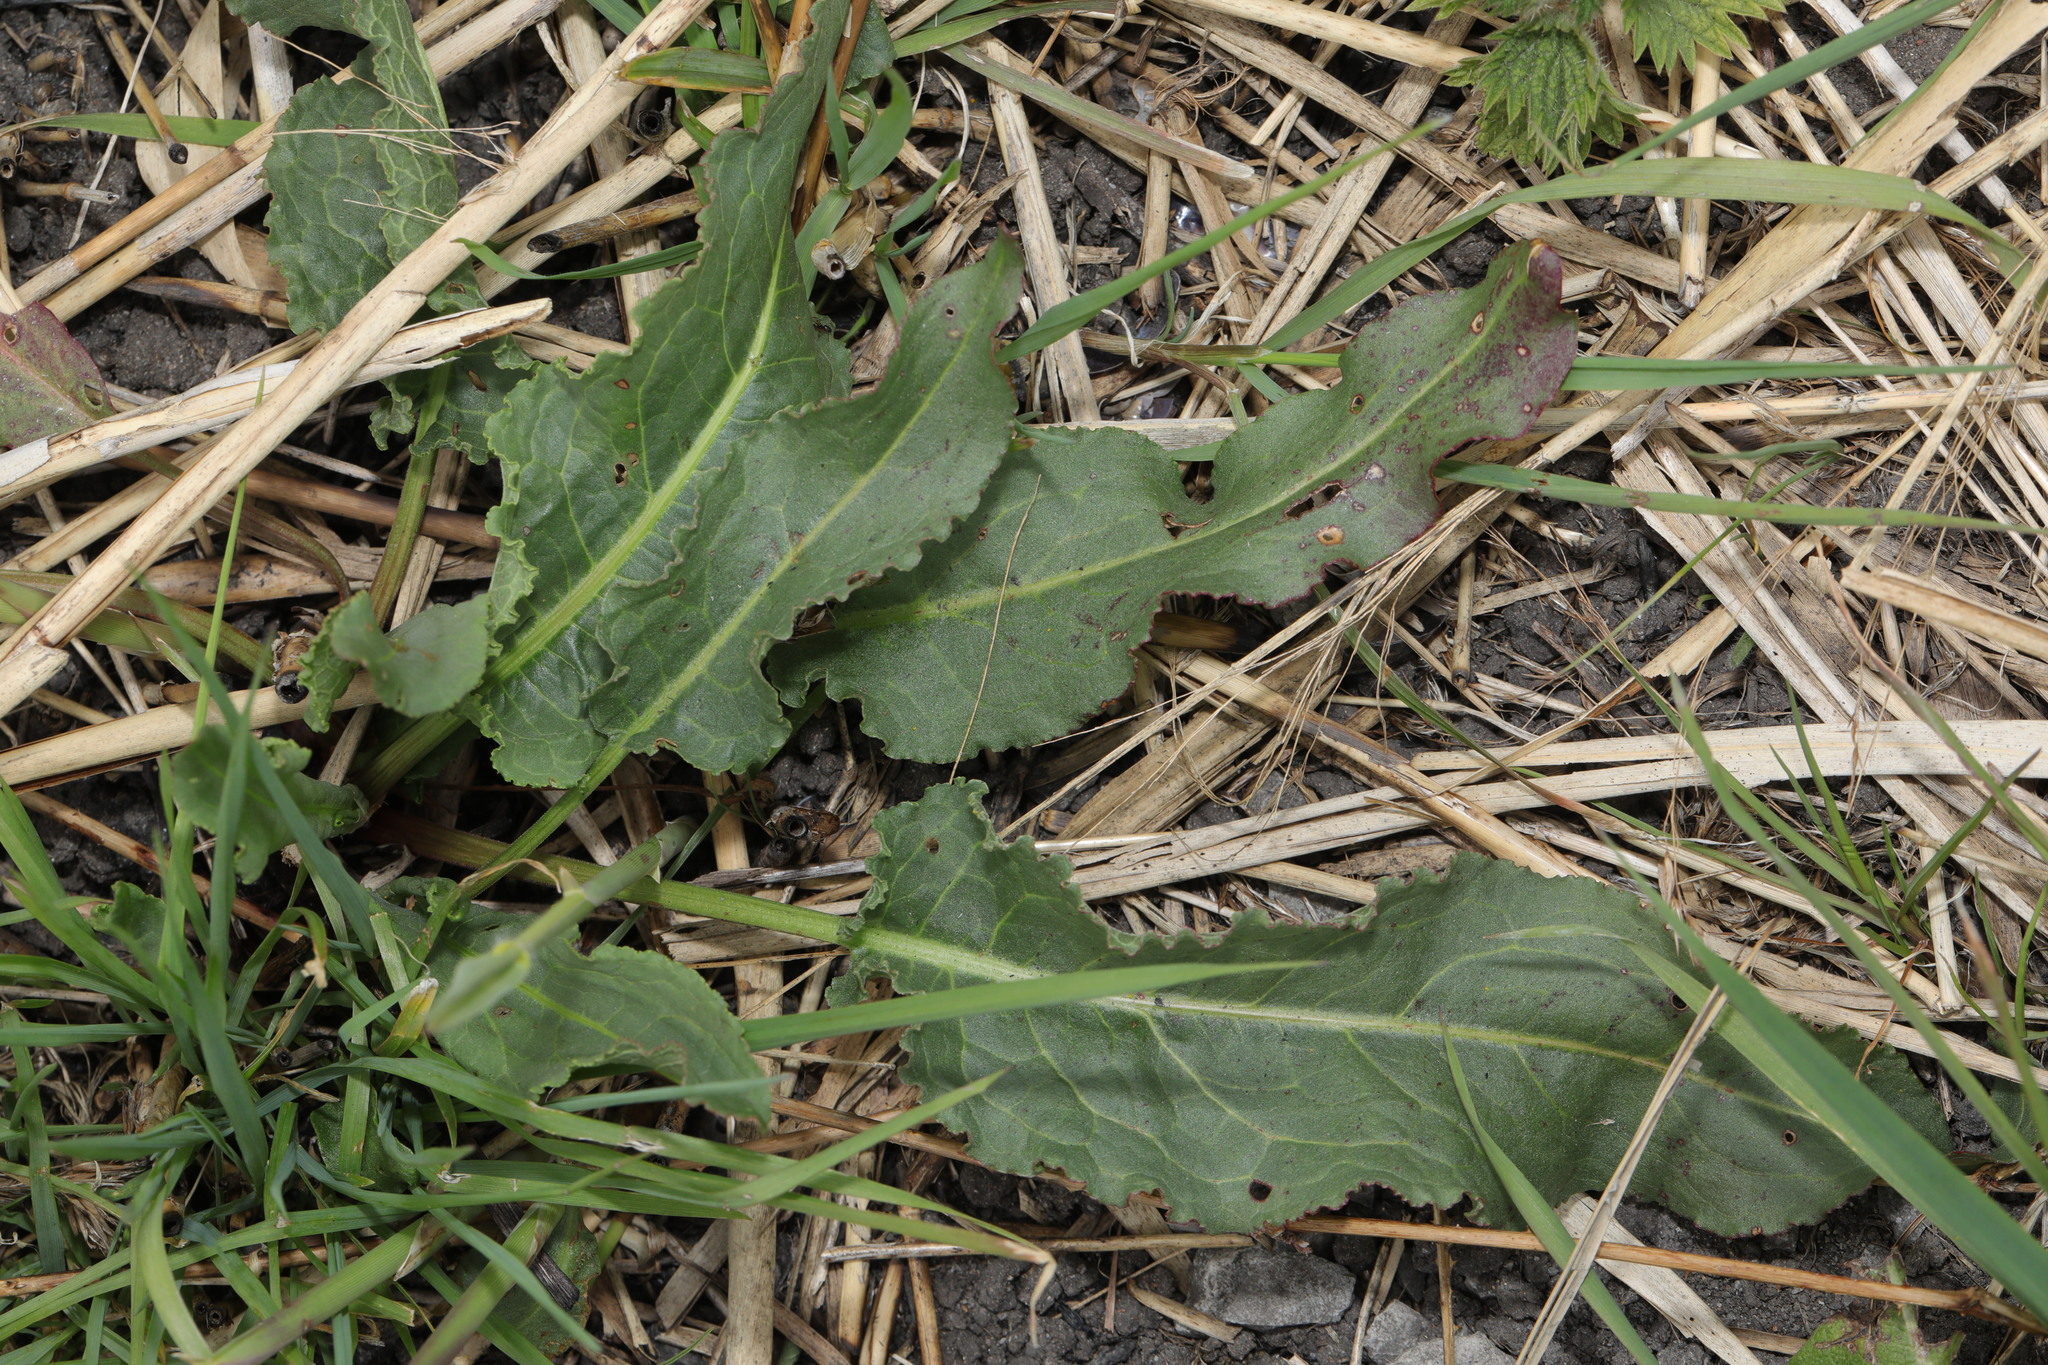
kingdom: Plantae
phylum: Tracheophyta
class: Magnoliopsida
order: Caryophyllales
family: Polygonaceae
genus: Rumex
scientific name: Rumex crispus
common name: Curled dock
